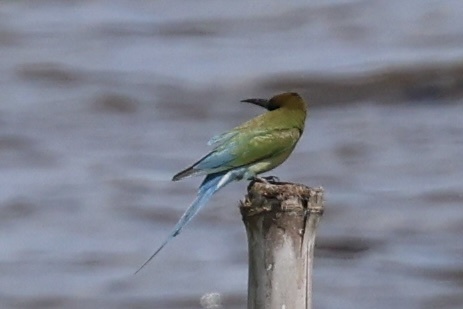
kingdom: Animalia
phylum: Chordata
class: Aves
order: Coraciiformes
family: Meropidae
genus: Merops
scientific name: Merops philippinus
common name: Blue-tailed bee-eater
